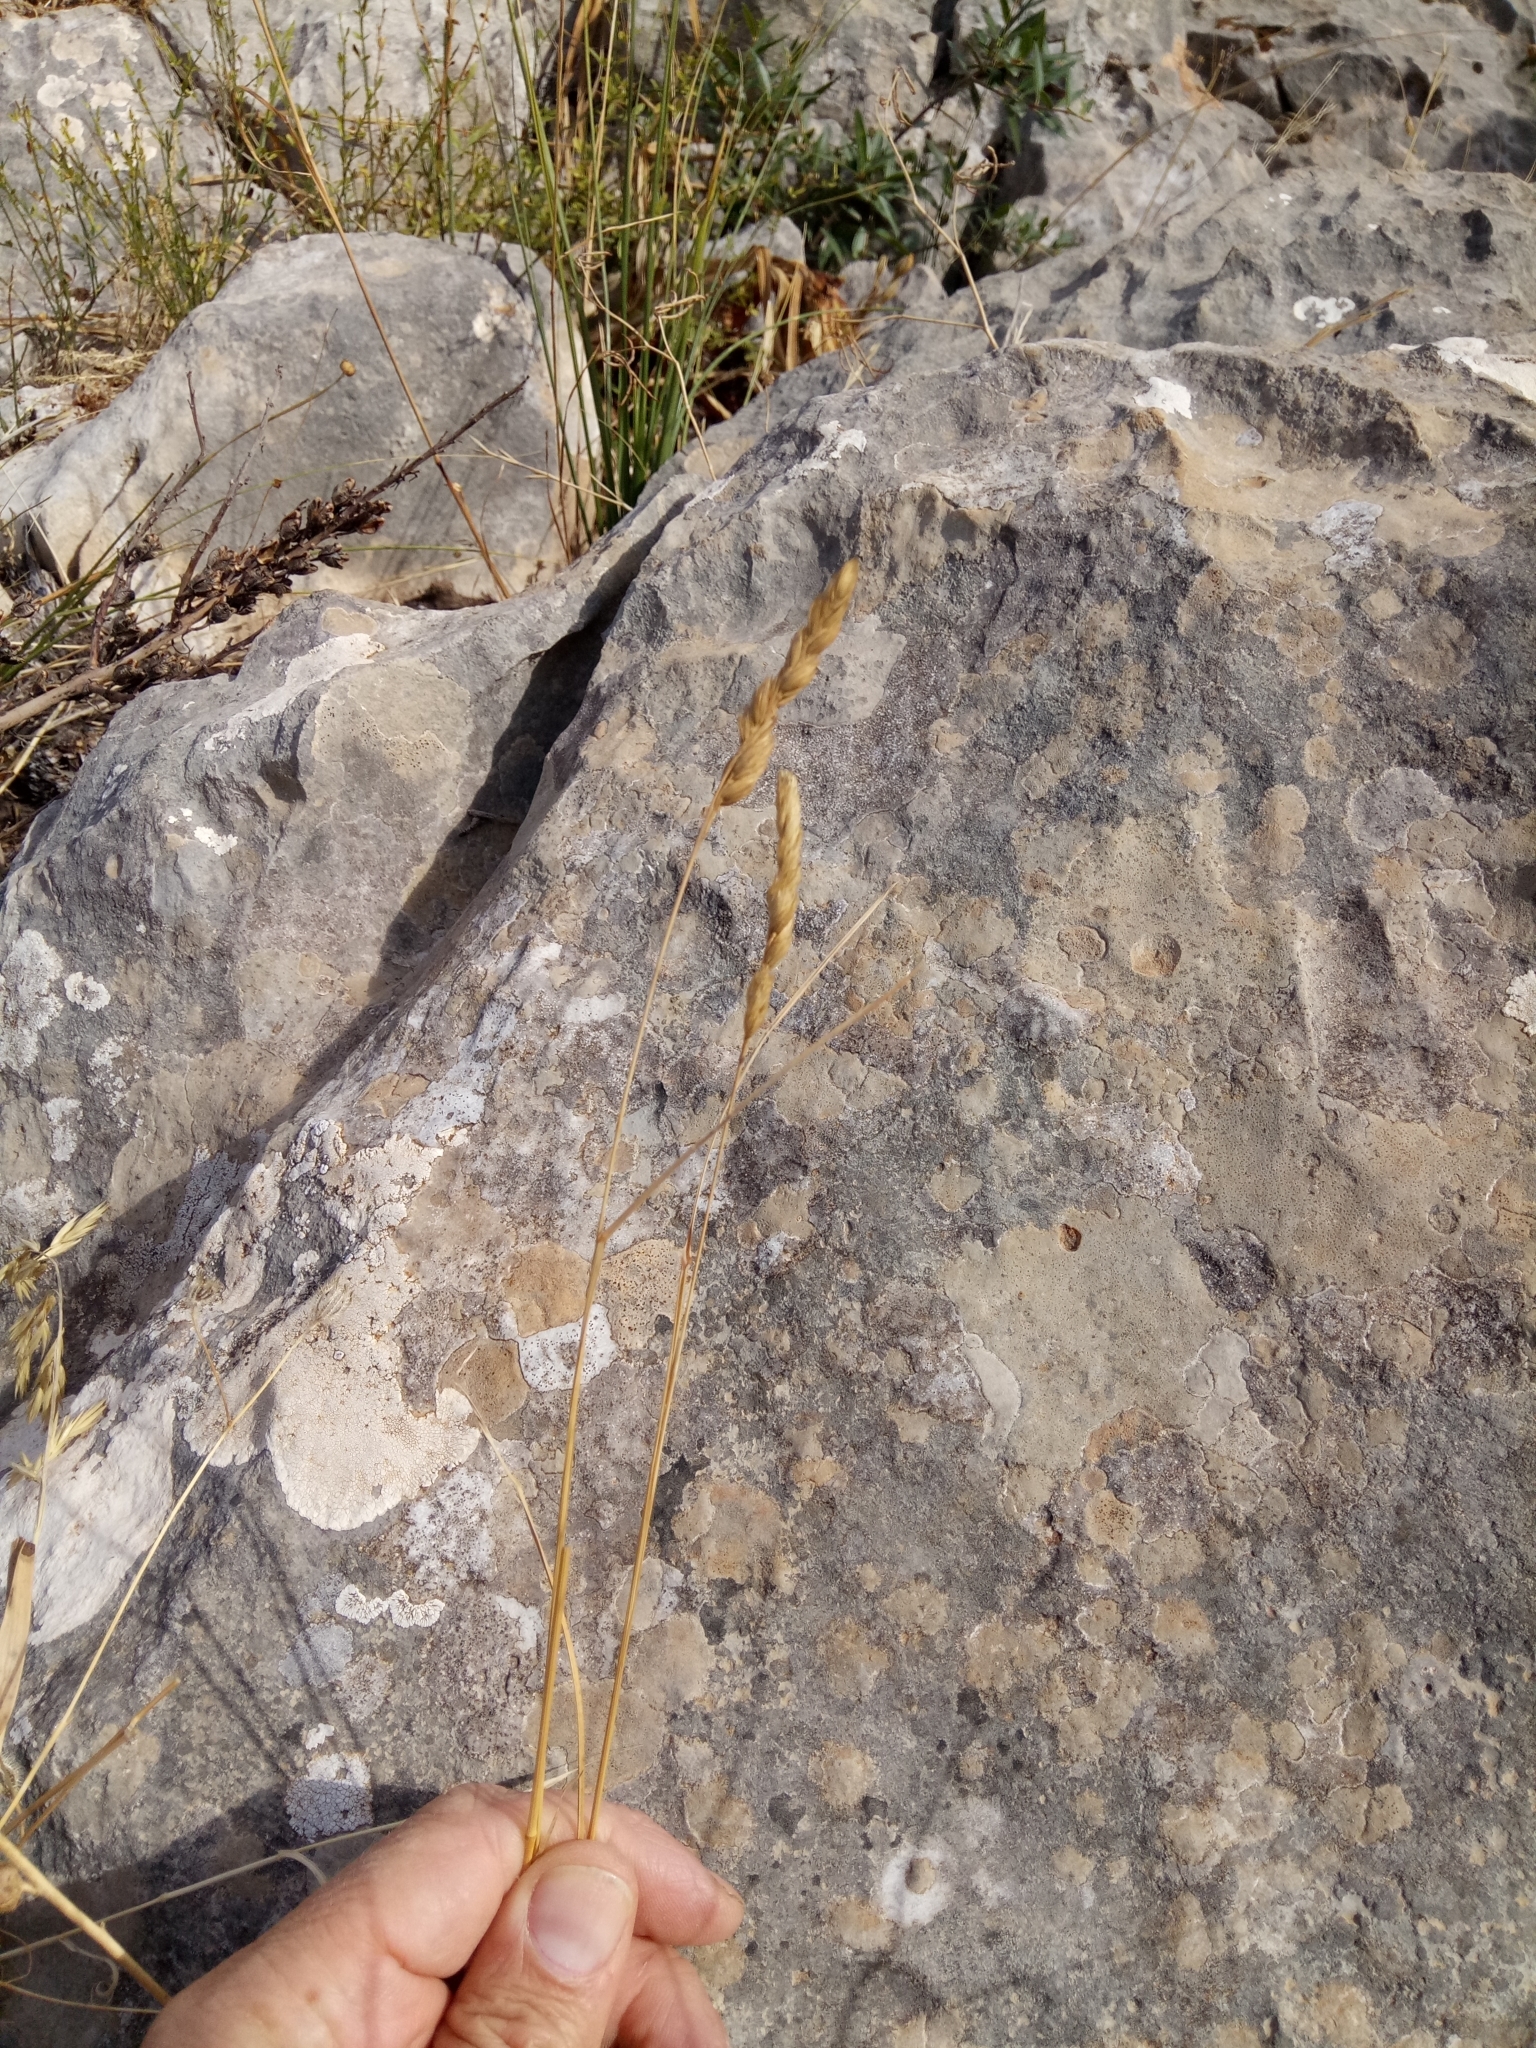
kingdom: Plantae
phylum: Tracheophyta
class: Liliopsida
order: Poales
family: Poaceae
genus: Dactylis
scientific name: Dactylis glomerata
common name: Orchardgrass
